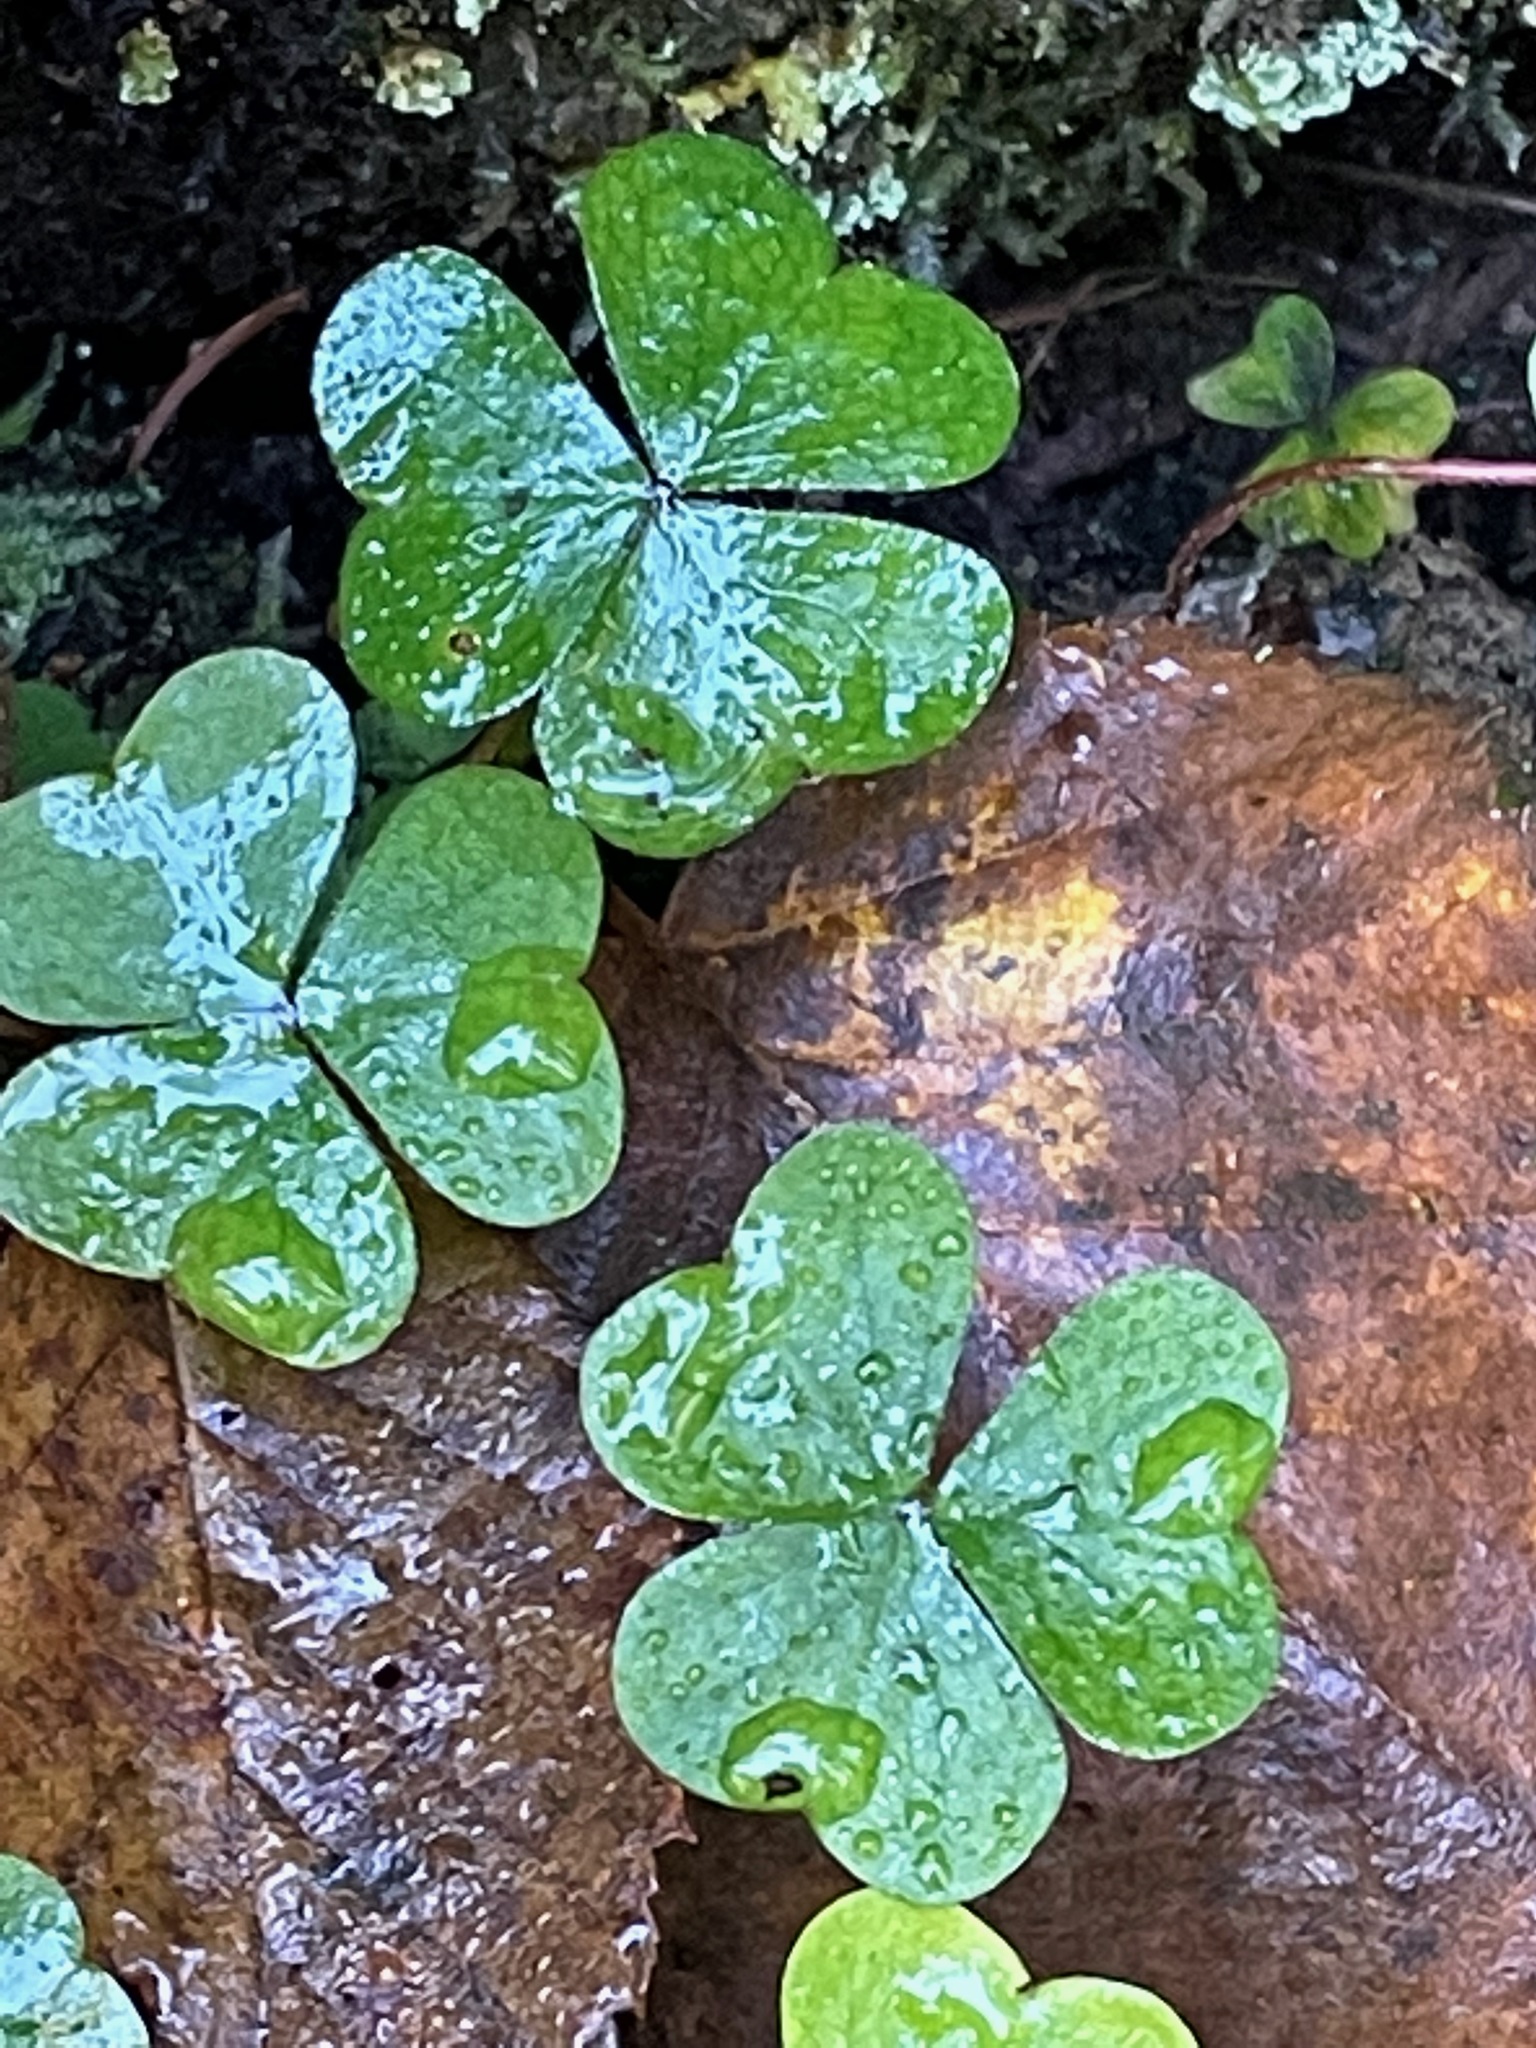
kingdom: Plantae
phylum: Tracheophyta
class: Magnoliopsida
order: Oxalidales
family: Oxalidaceae
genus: Oxalis
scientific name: Oxalis montana
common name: American wood-sorrel
